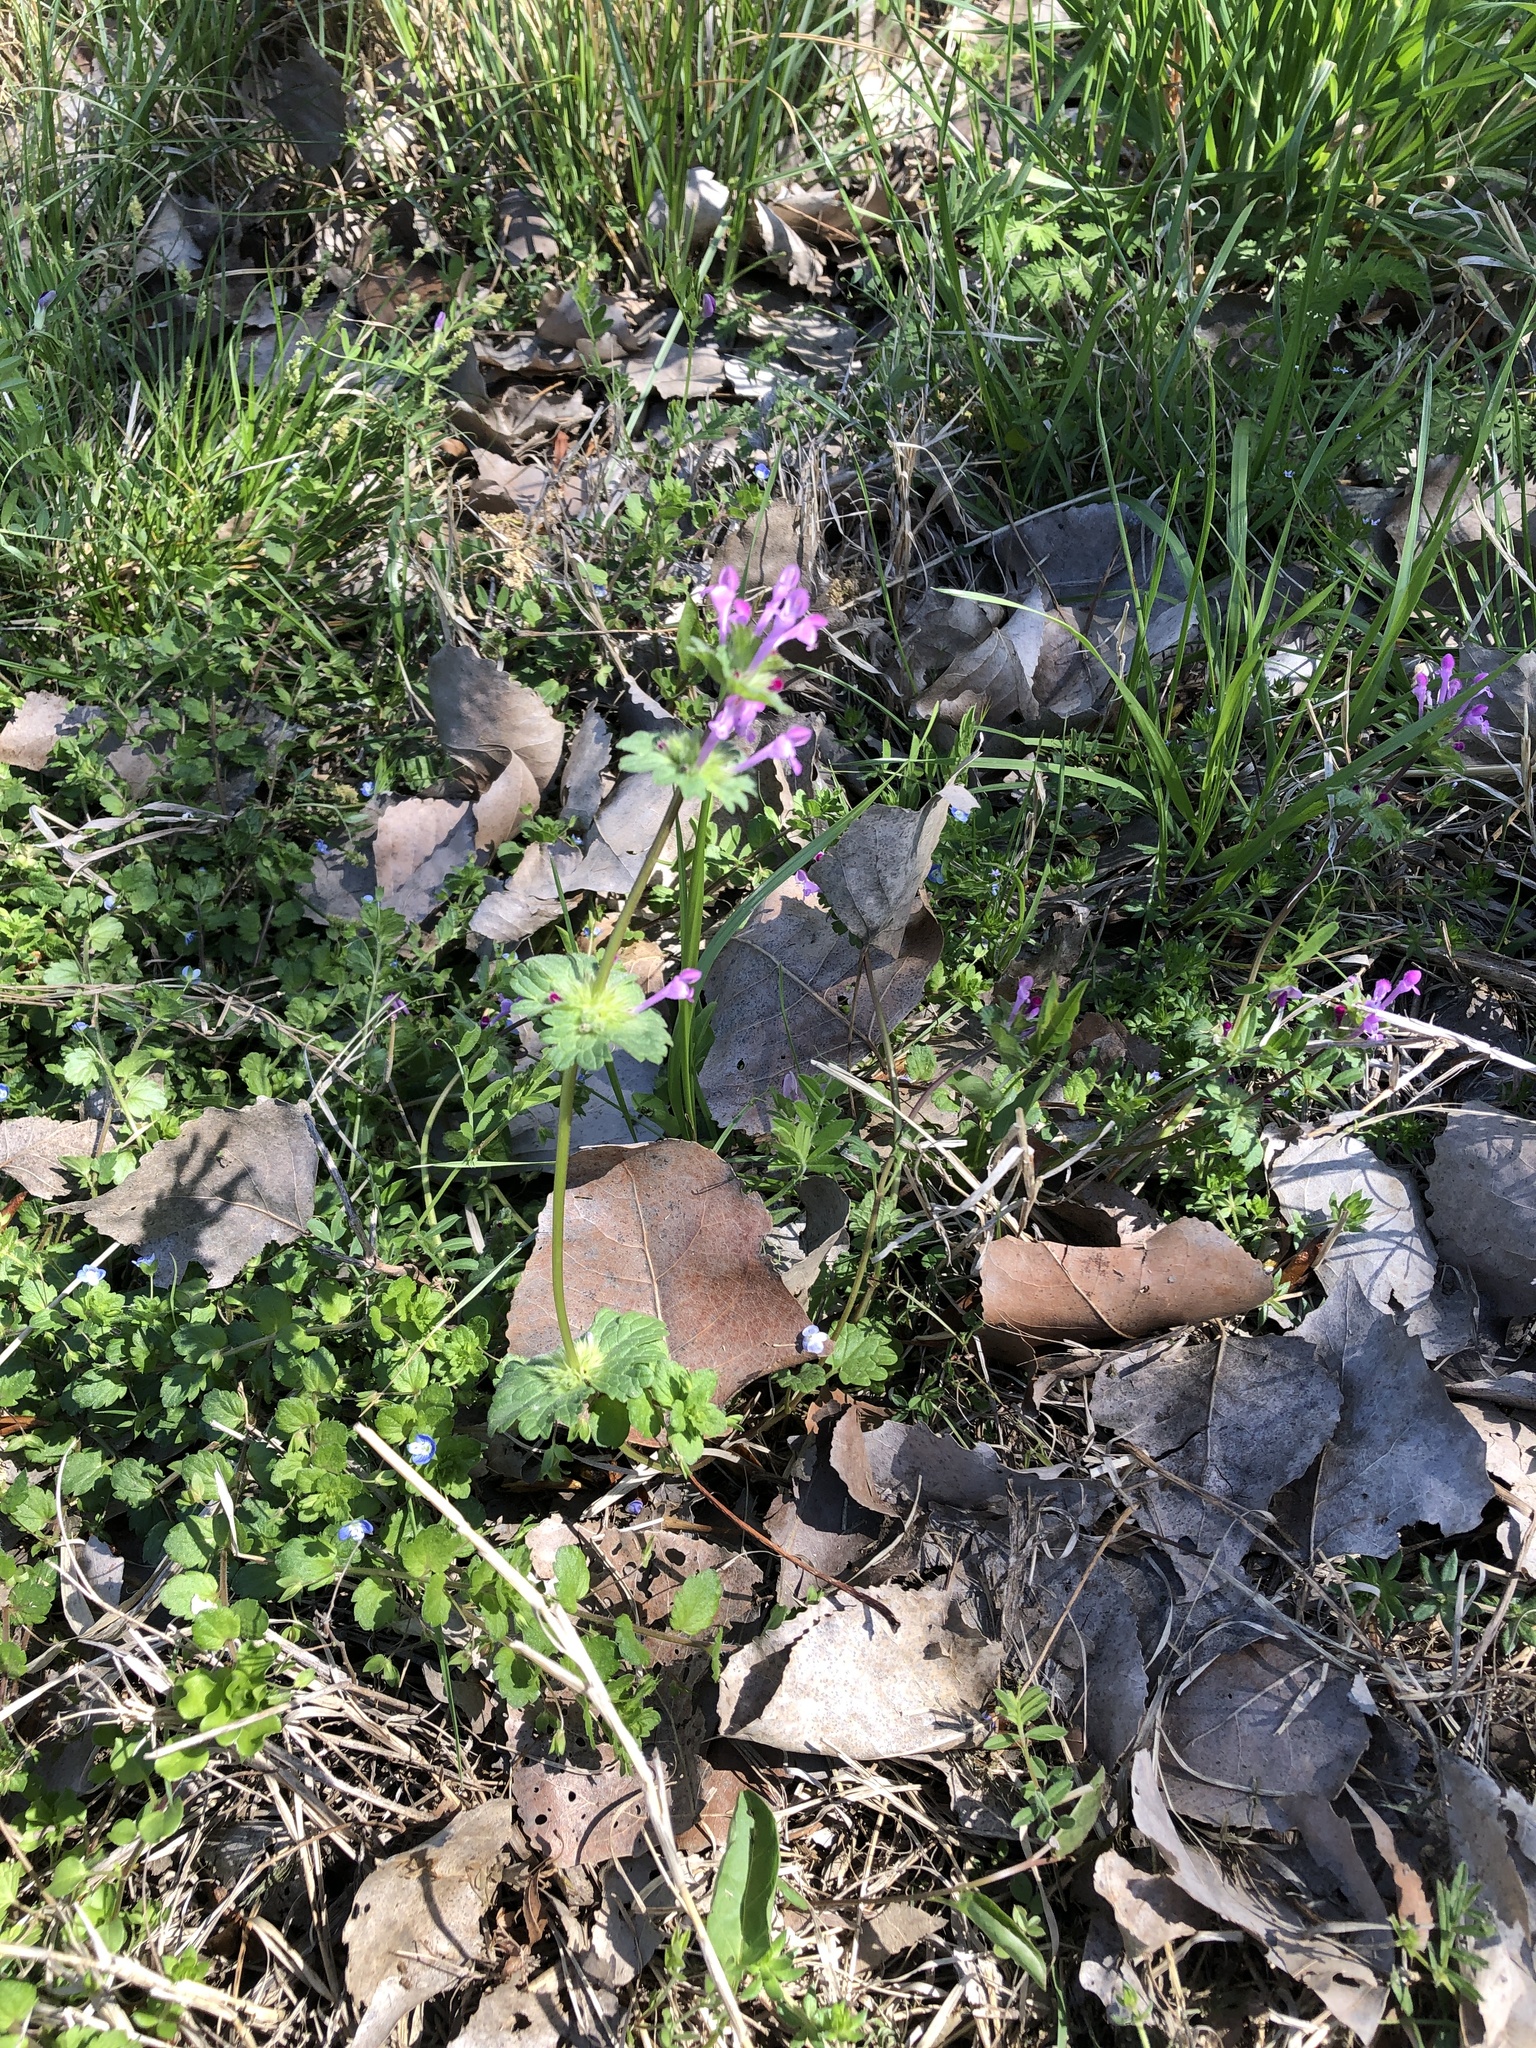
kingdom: Plantae
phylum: Tracheophyta
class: Magnoliopsida
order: Lamiales
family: Lamiaceae
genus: Lamium
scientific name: Lamium amplexicaule
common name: Henbit dead-nettle
